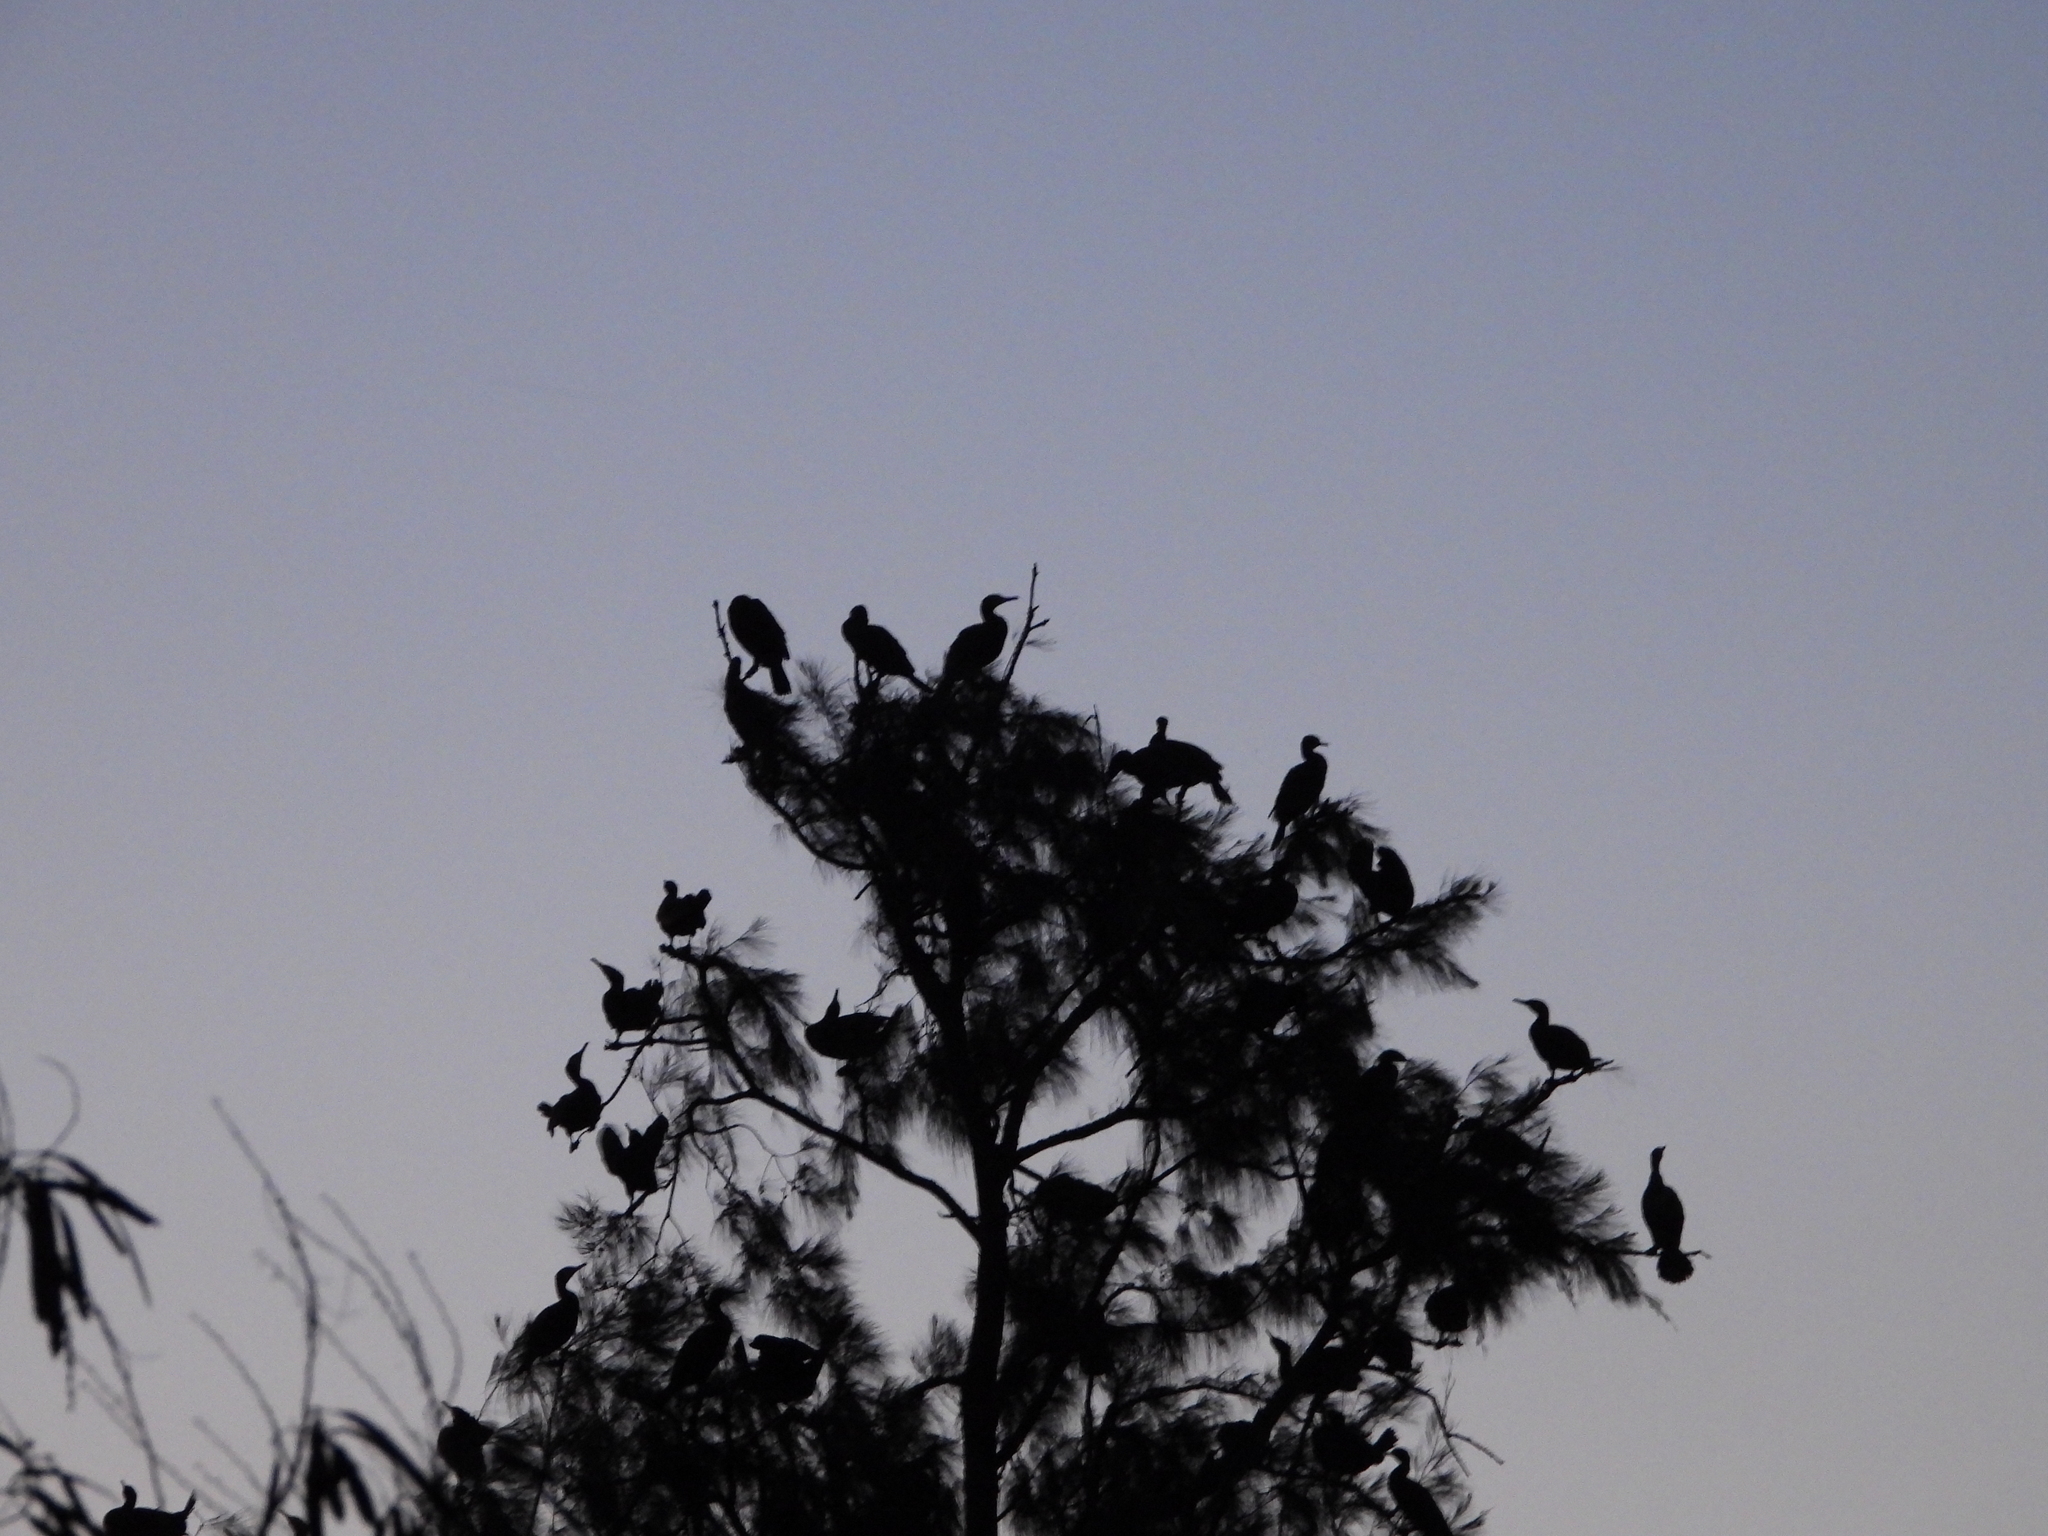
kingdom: Animalia
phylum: Chordata
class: Aves
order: Suliformes
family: Phalacrocoracidae
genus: Phalacrocorax
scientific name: Phalacrocorax carbo
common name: Great cormorant
